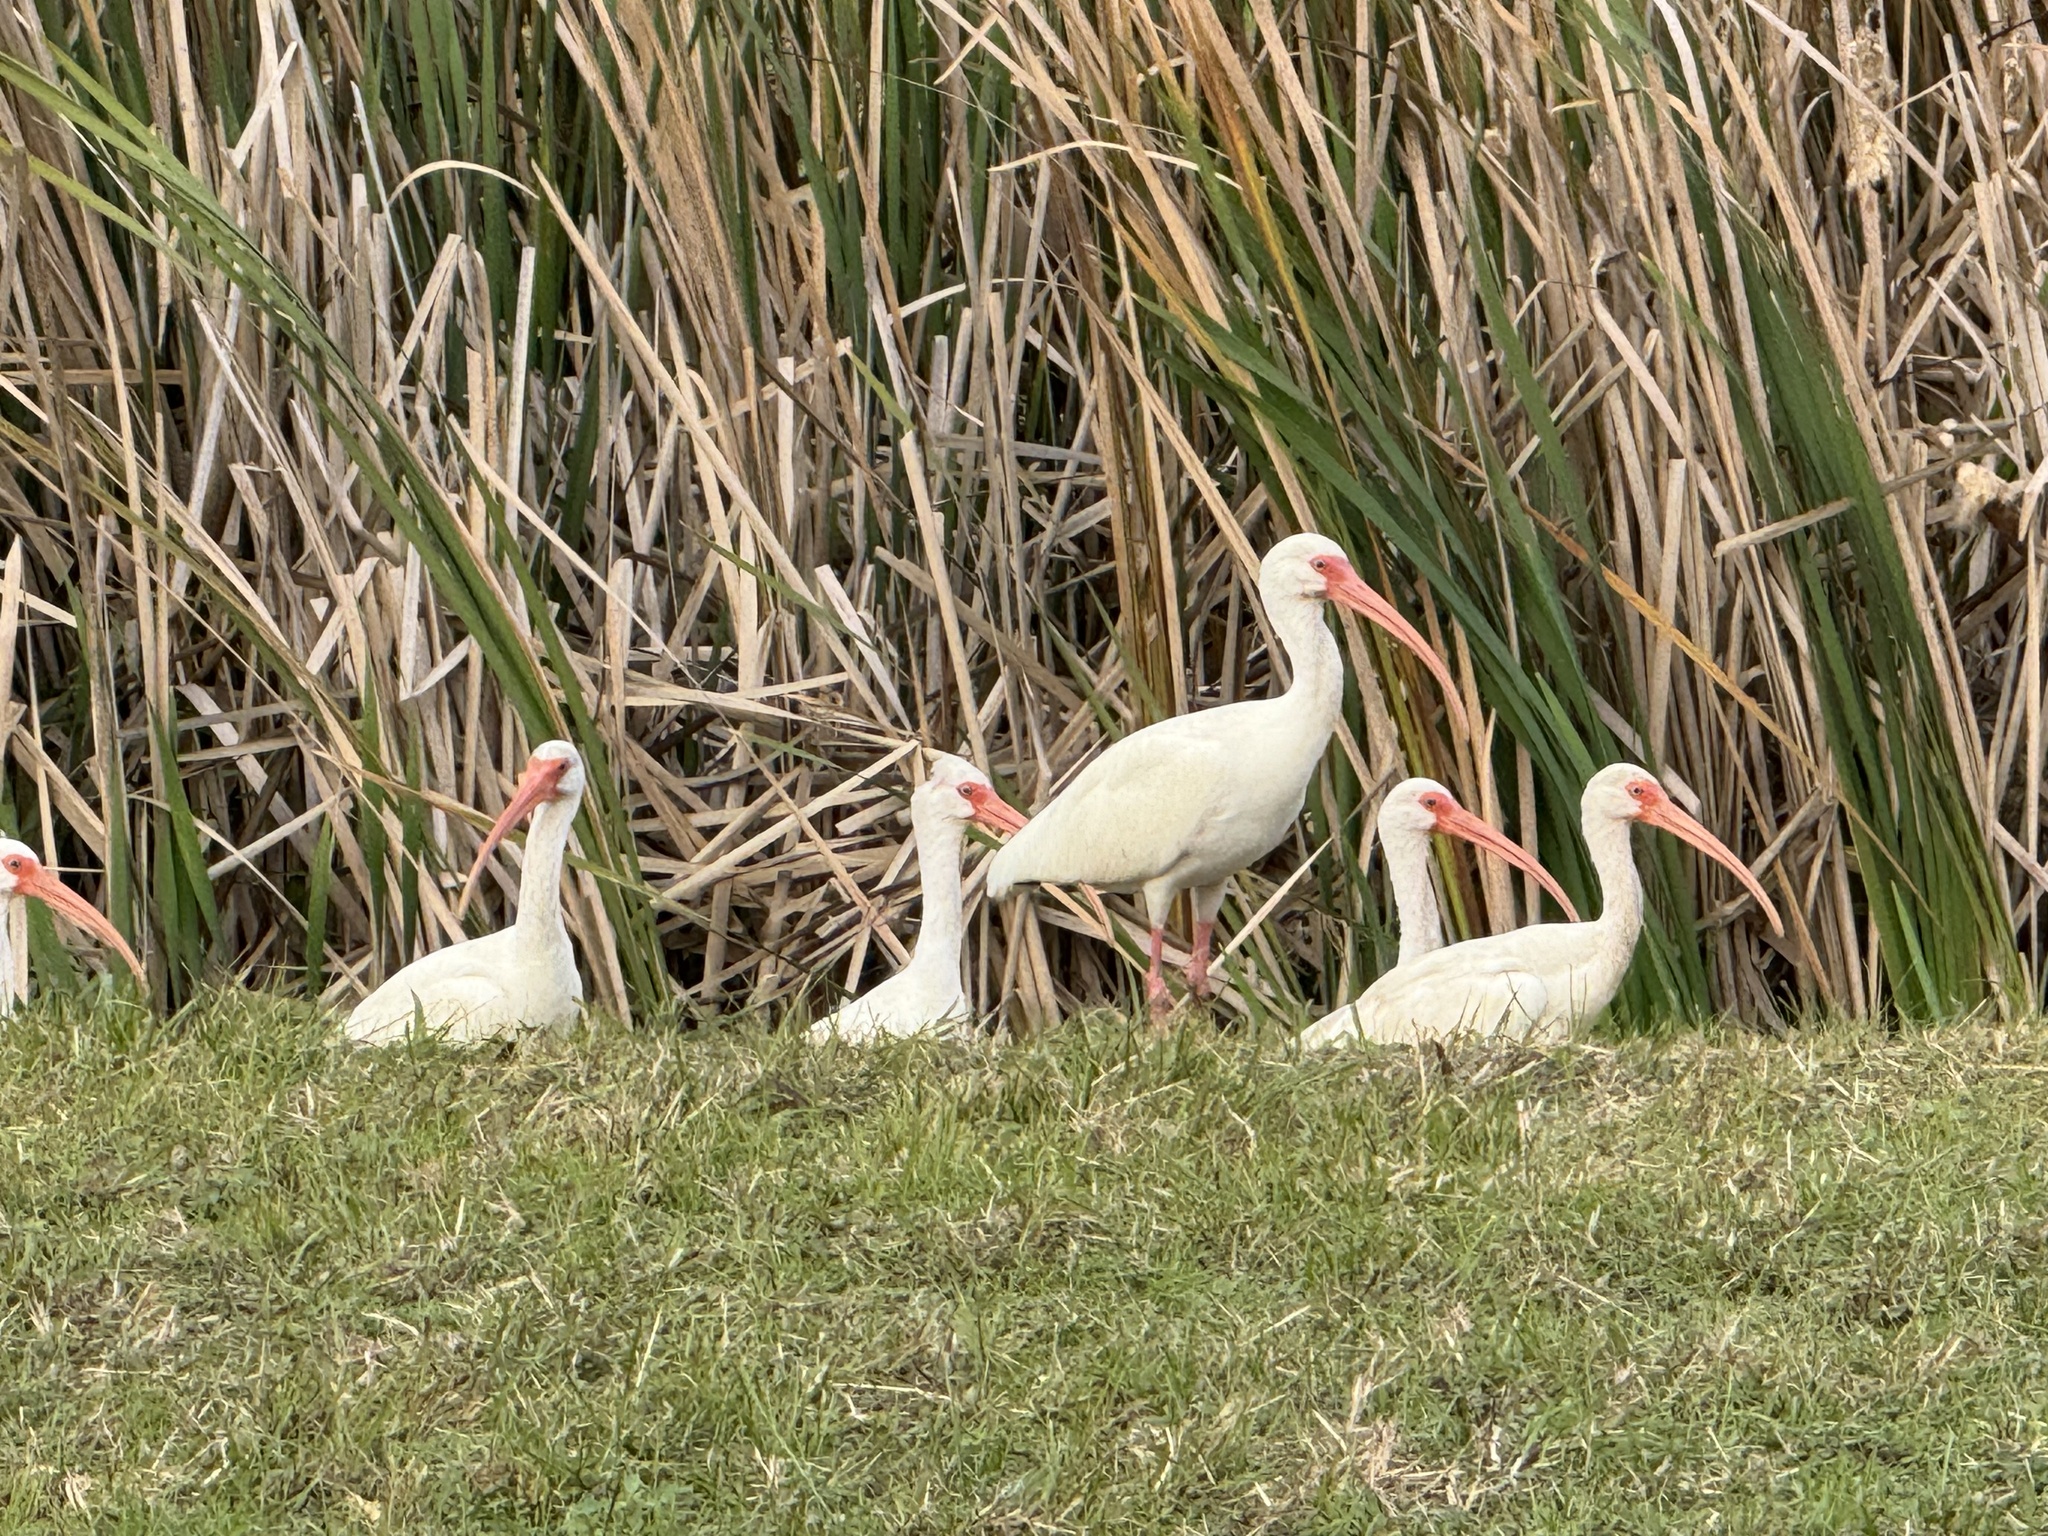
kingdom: Animalia
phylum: Chordata
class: Aves
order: Pelecaniformes
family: Threskiornithidae
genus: Eudocimus
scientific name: Eudocimus albus
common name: White ibis
